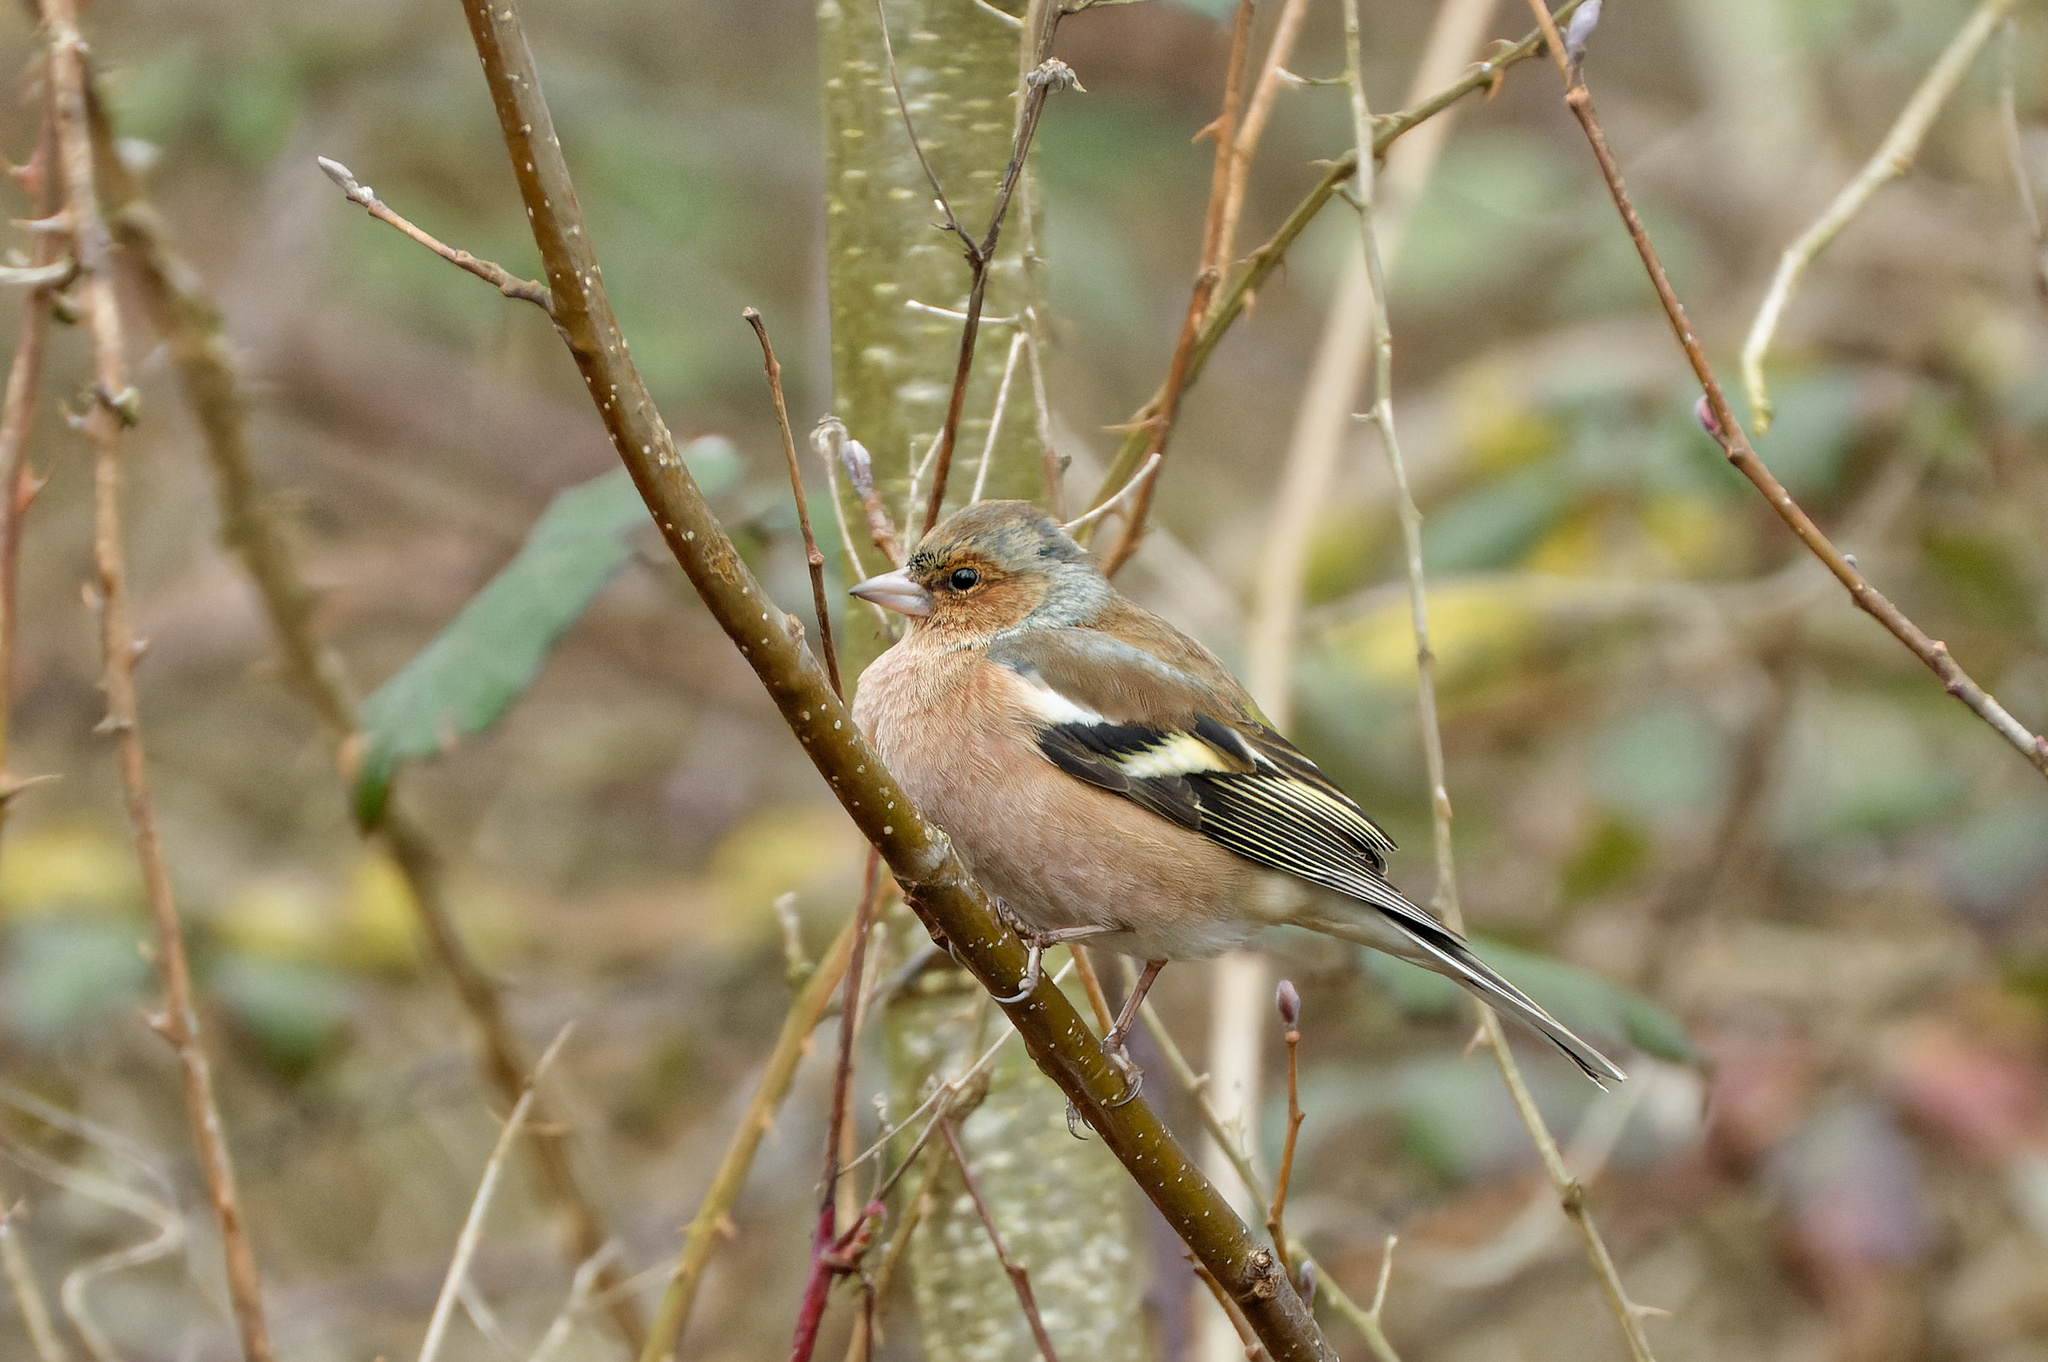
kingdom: Animalia
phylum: Chordata
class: Aves
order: Passeriformes
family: Fringillidae
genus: Fringilla
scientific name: Fringilla coelebs
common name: Common chaffinch
